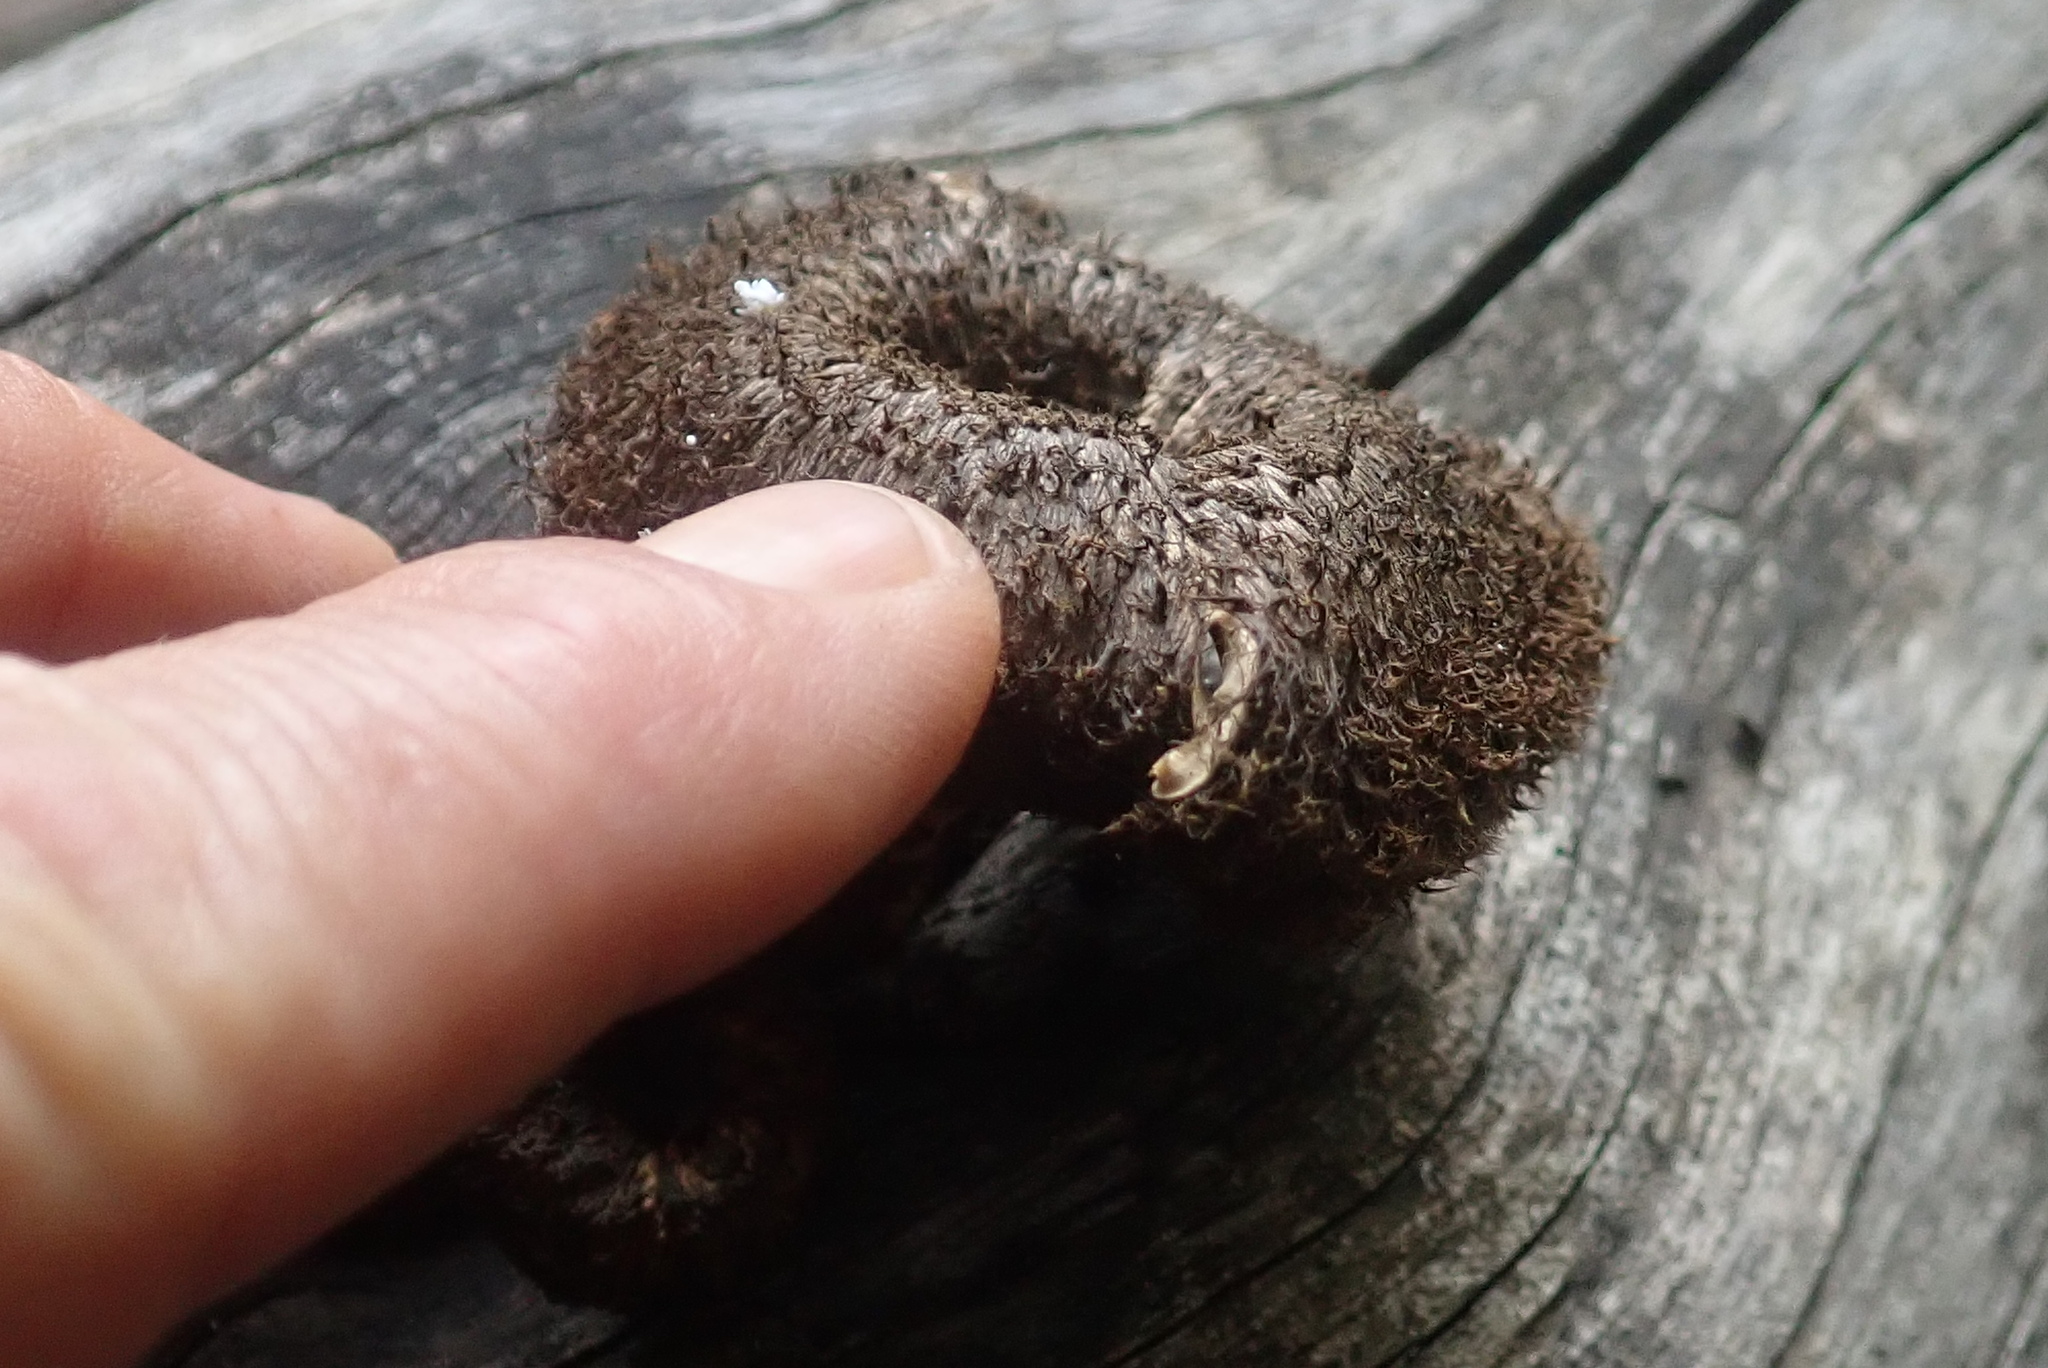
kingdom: Fungi
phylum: Basidiomycota
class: Agaricomycetes
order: Polyporales
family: Polyporaceae
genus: Lentinus
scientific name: Lentinus stuppeus
